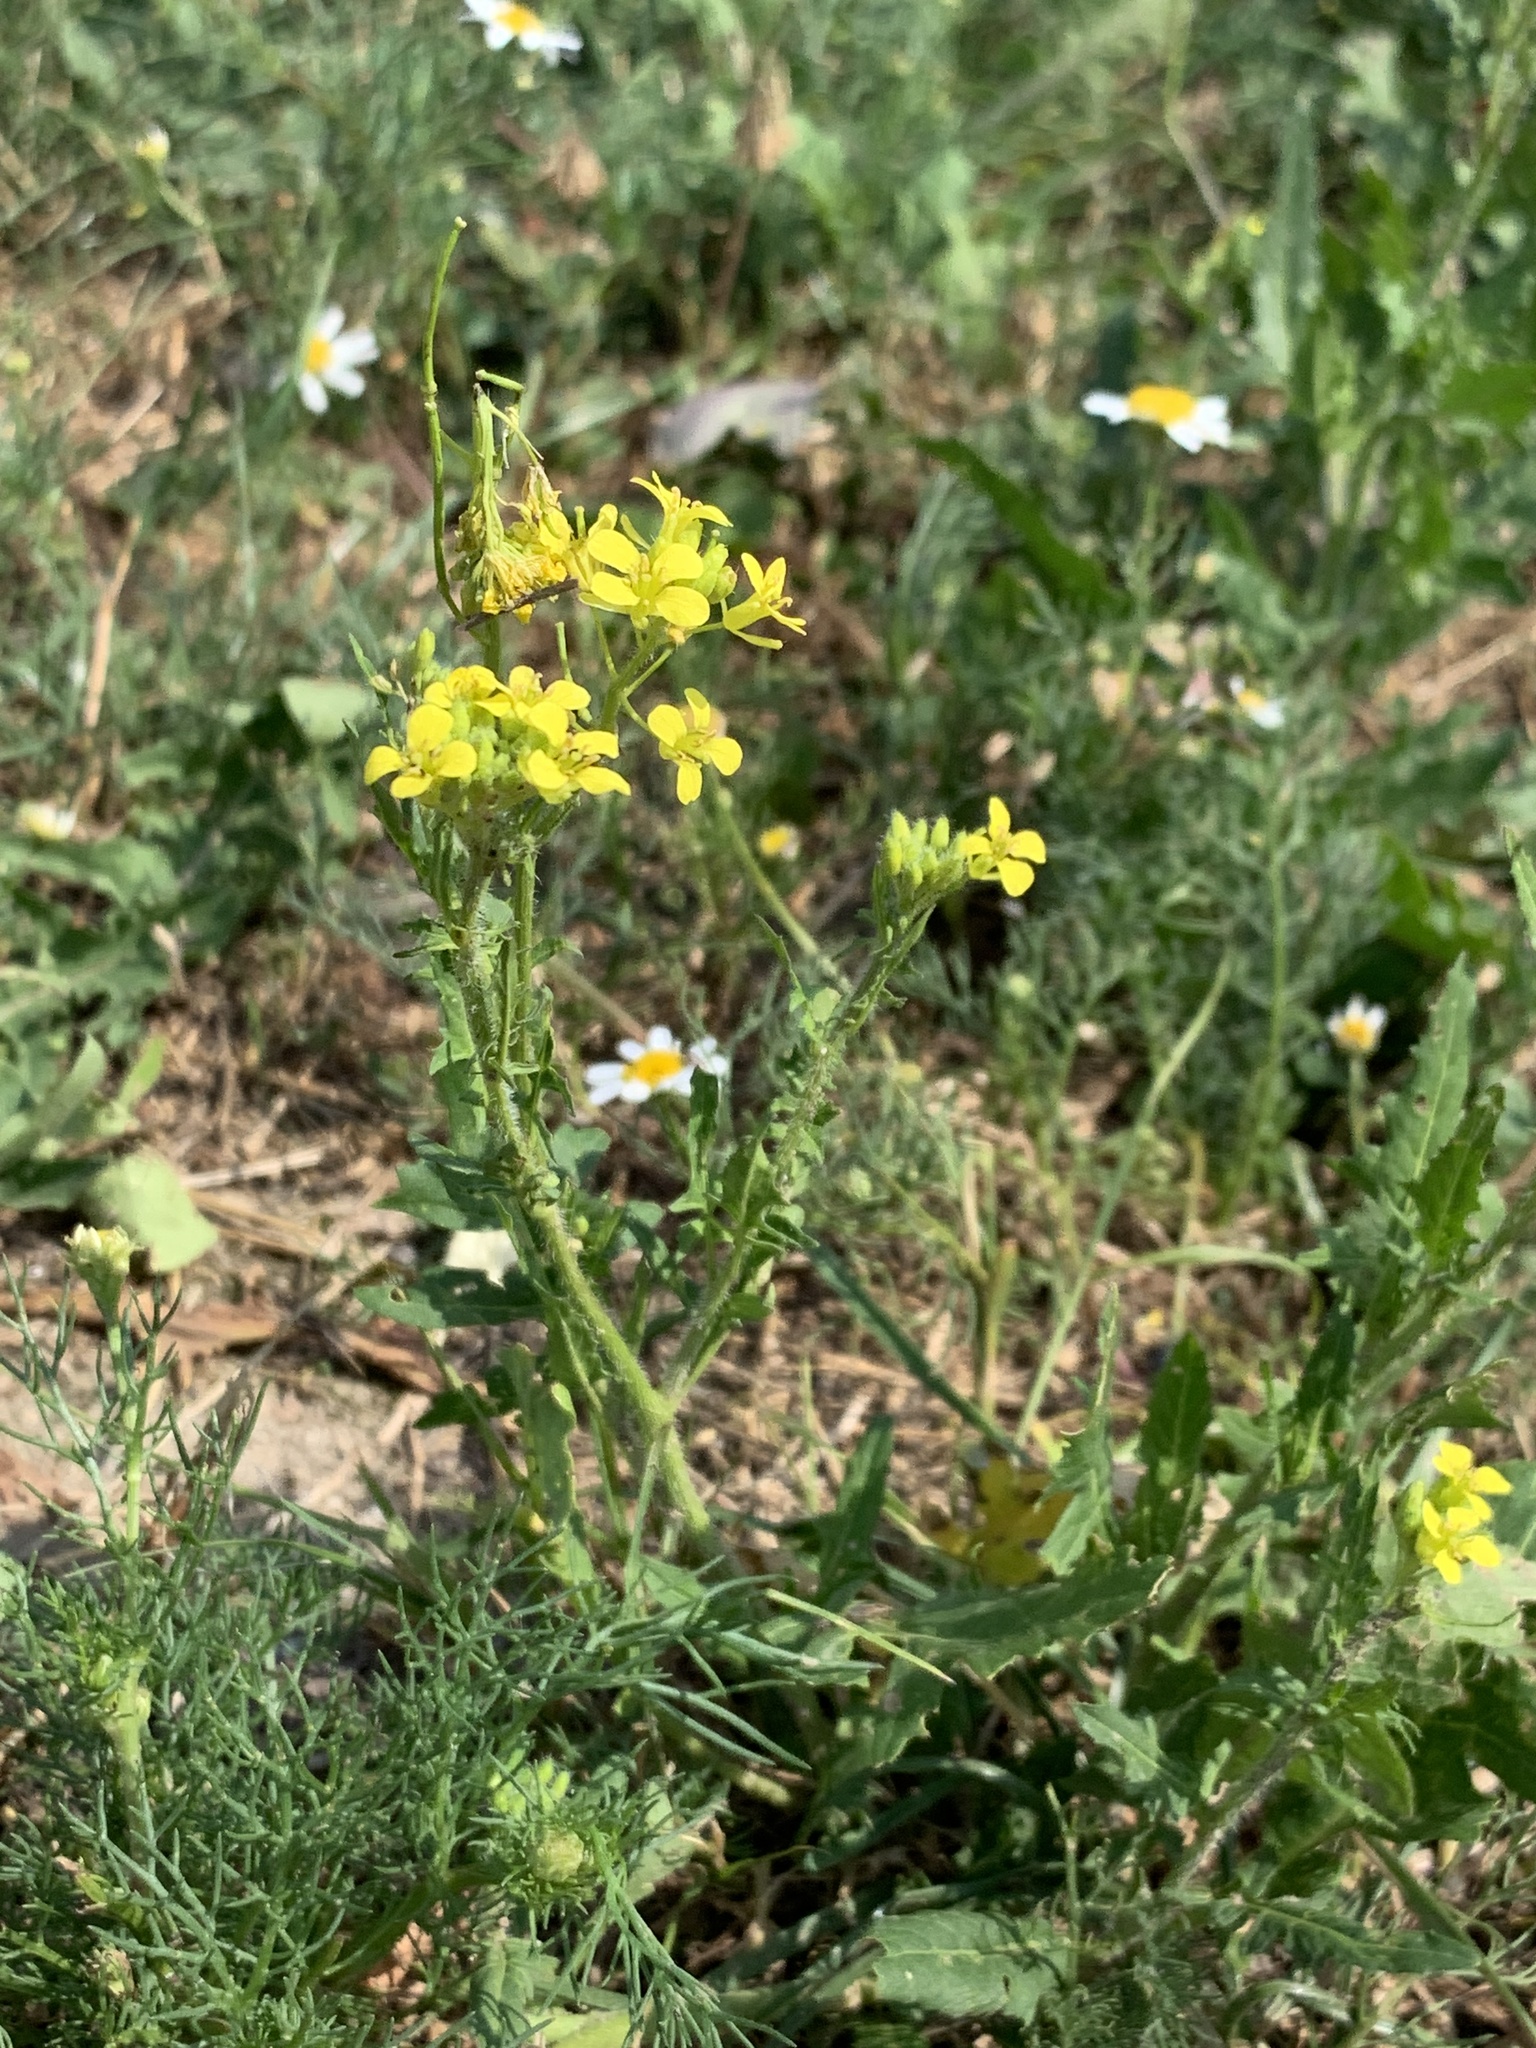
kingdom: Plantae
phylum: Tracheophyta
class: Magnoliopsida
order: Brassicales
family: Brassicaceae
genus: Sisymbrium
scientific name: Sisymbrium loeselii
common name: False london-rocket
